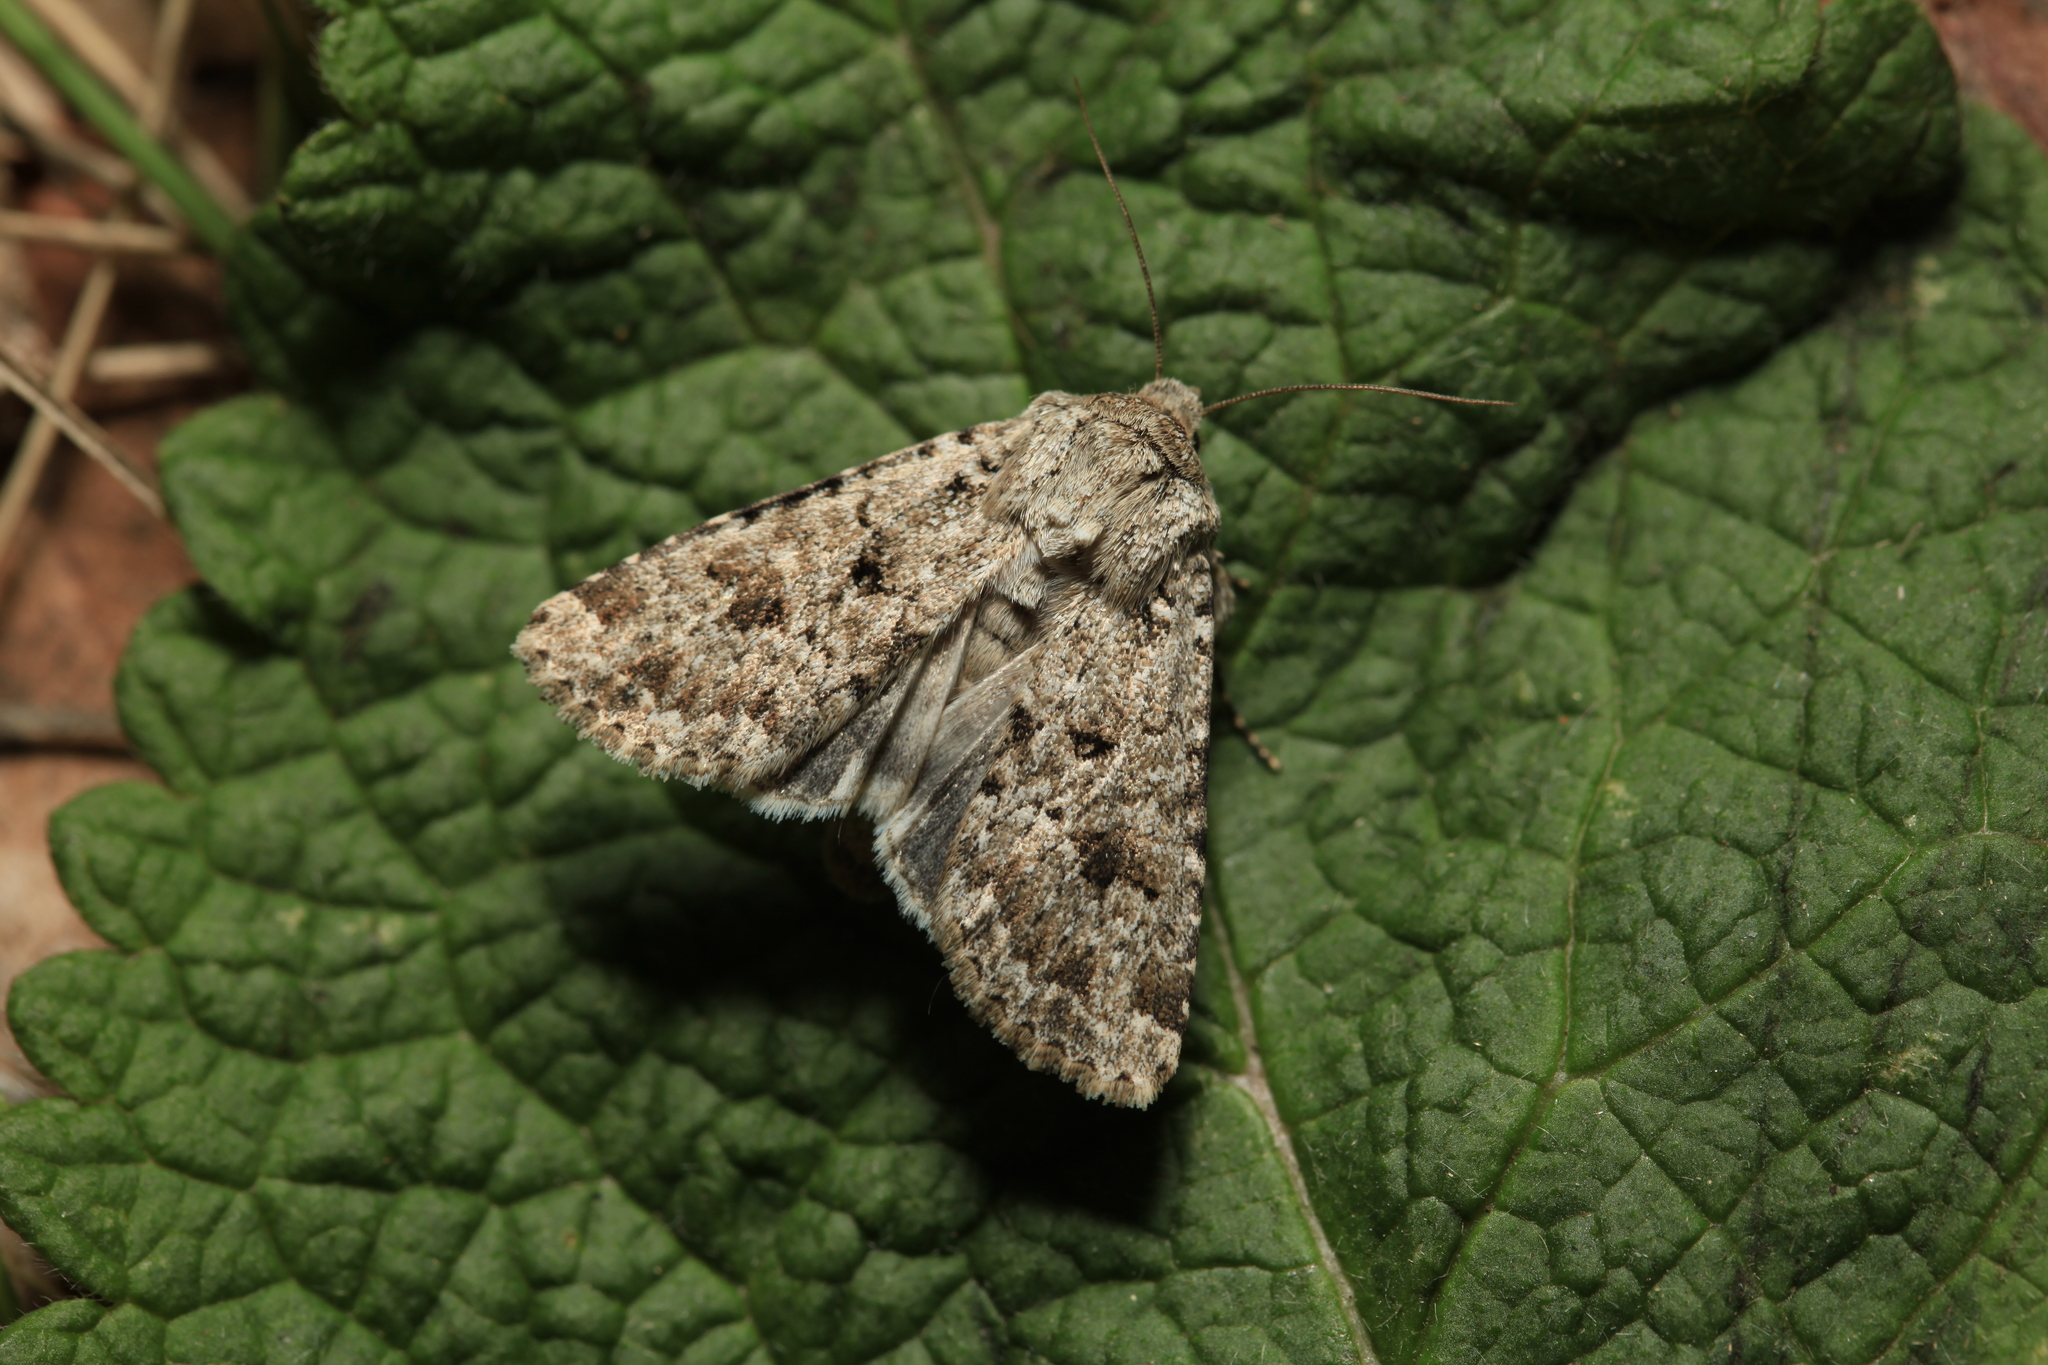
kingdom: Animalia
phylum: Arthropoda
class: Insecta
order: Lepidoptera
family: Noctuidae
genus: Anarta
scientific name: Anarta stigmosa
